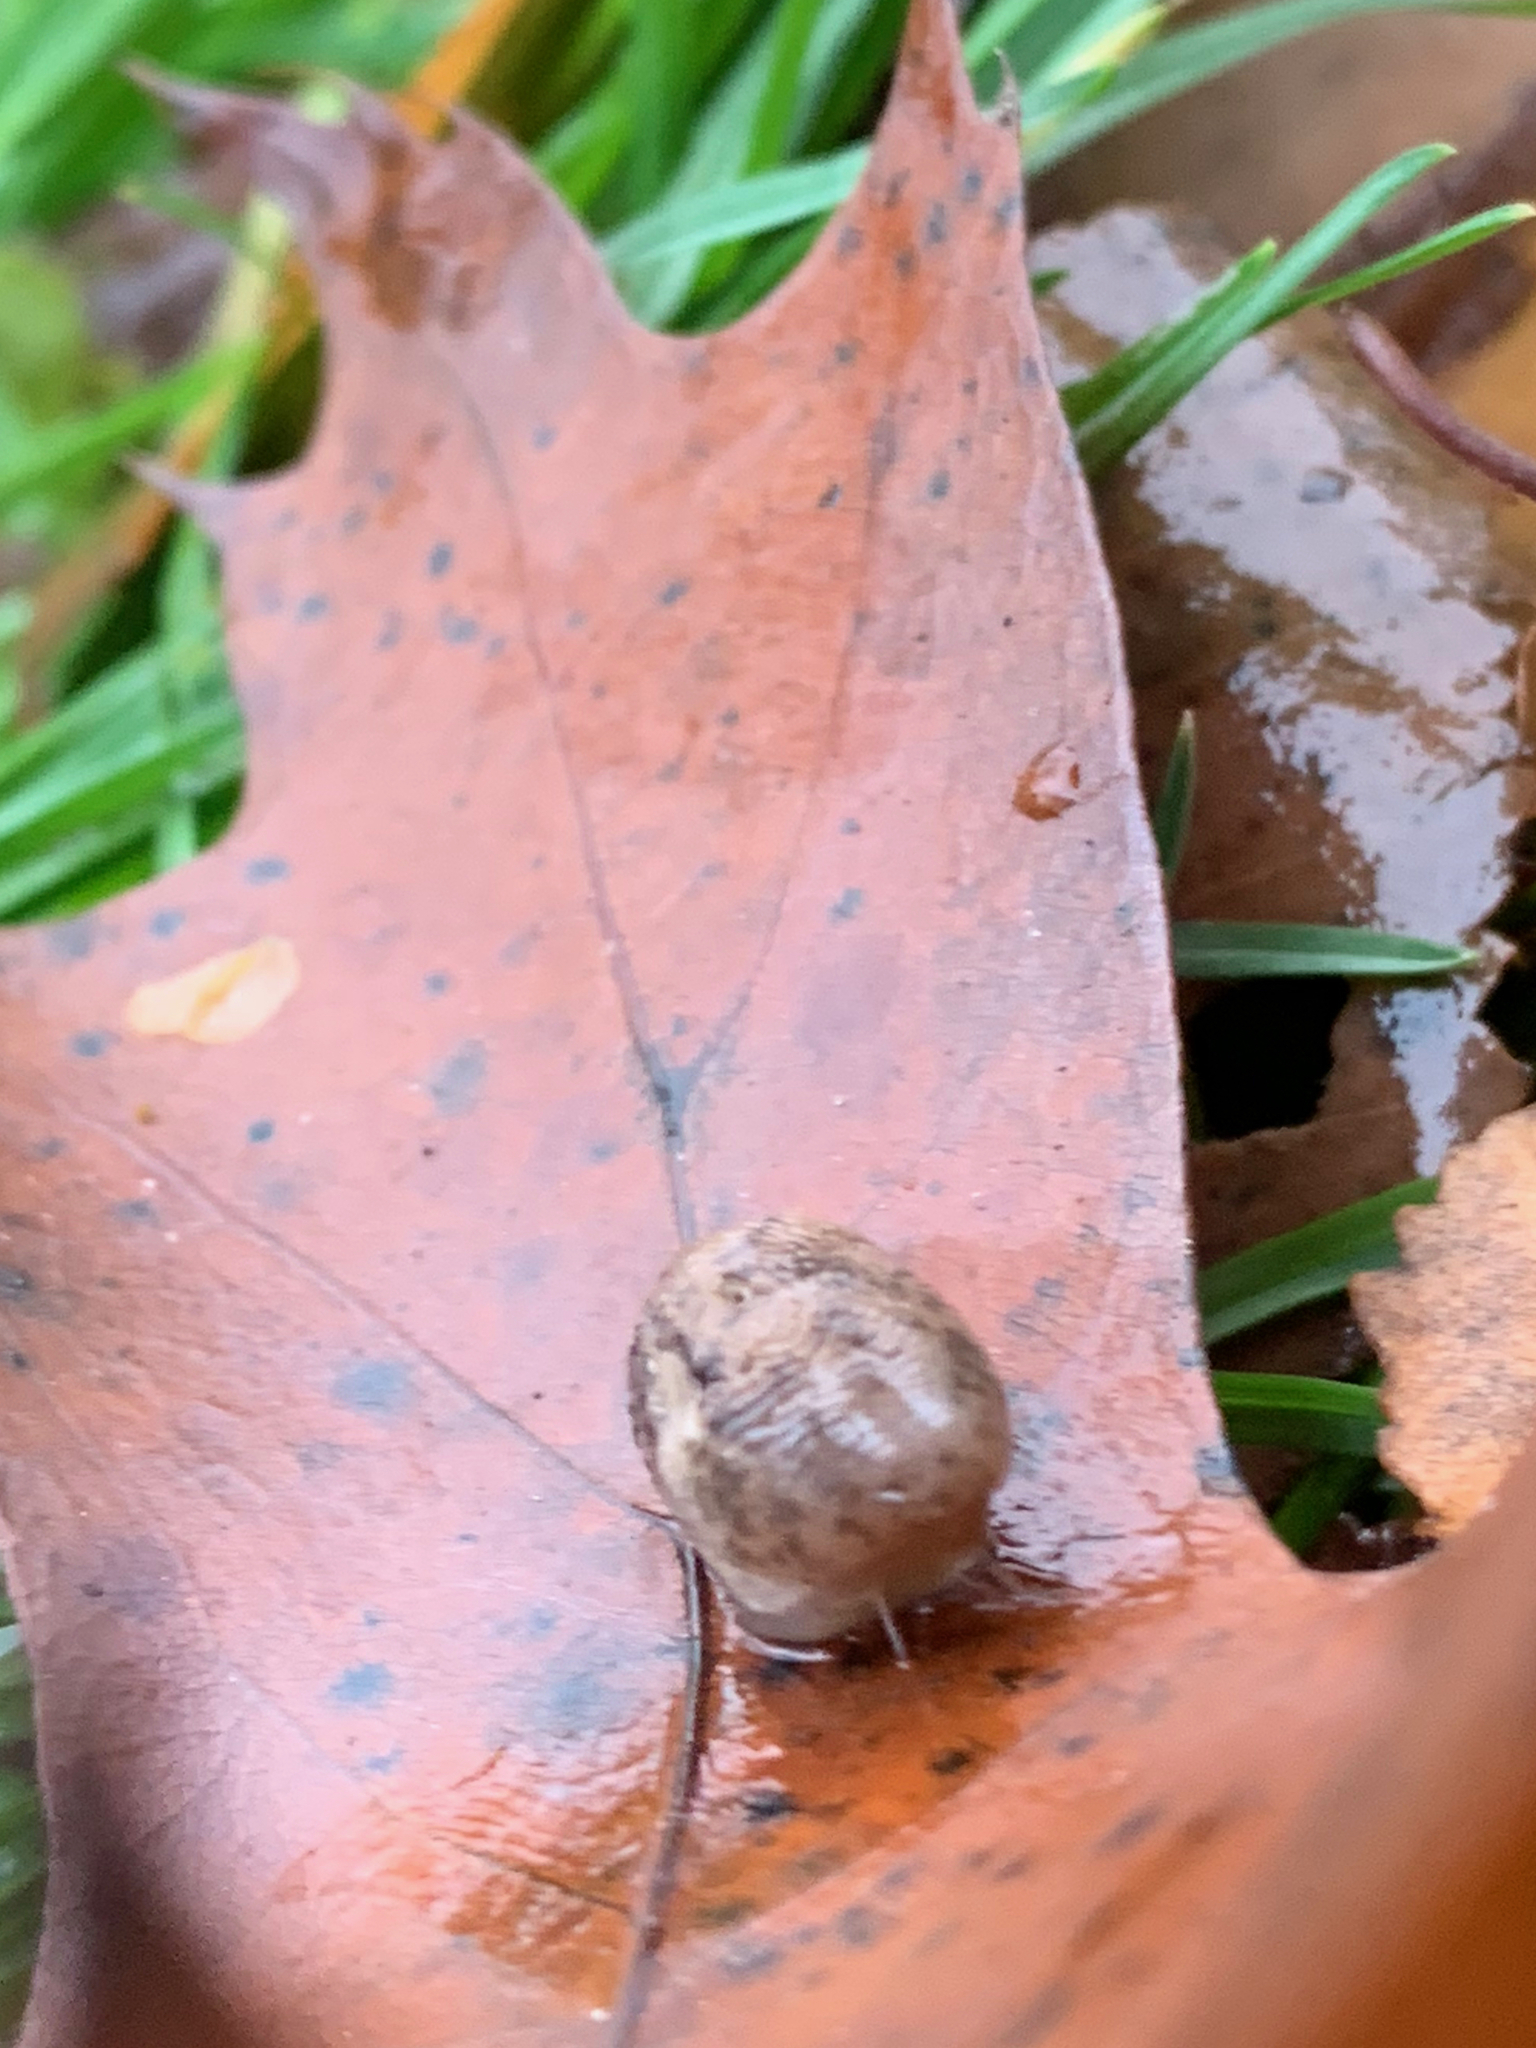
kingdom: Animalia
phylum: Mollusca
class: Gastropoda
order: Stylommatophora
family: Agriolimacidae
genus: Deroceras
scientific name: Deroceras reticulatum
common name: Gray field slug
